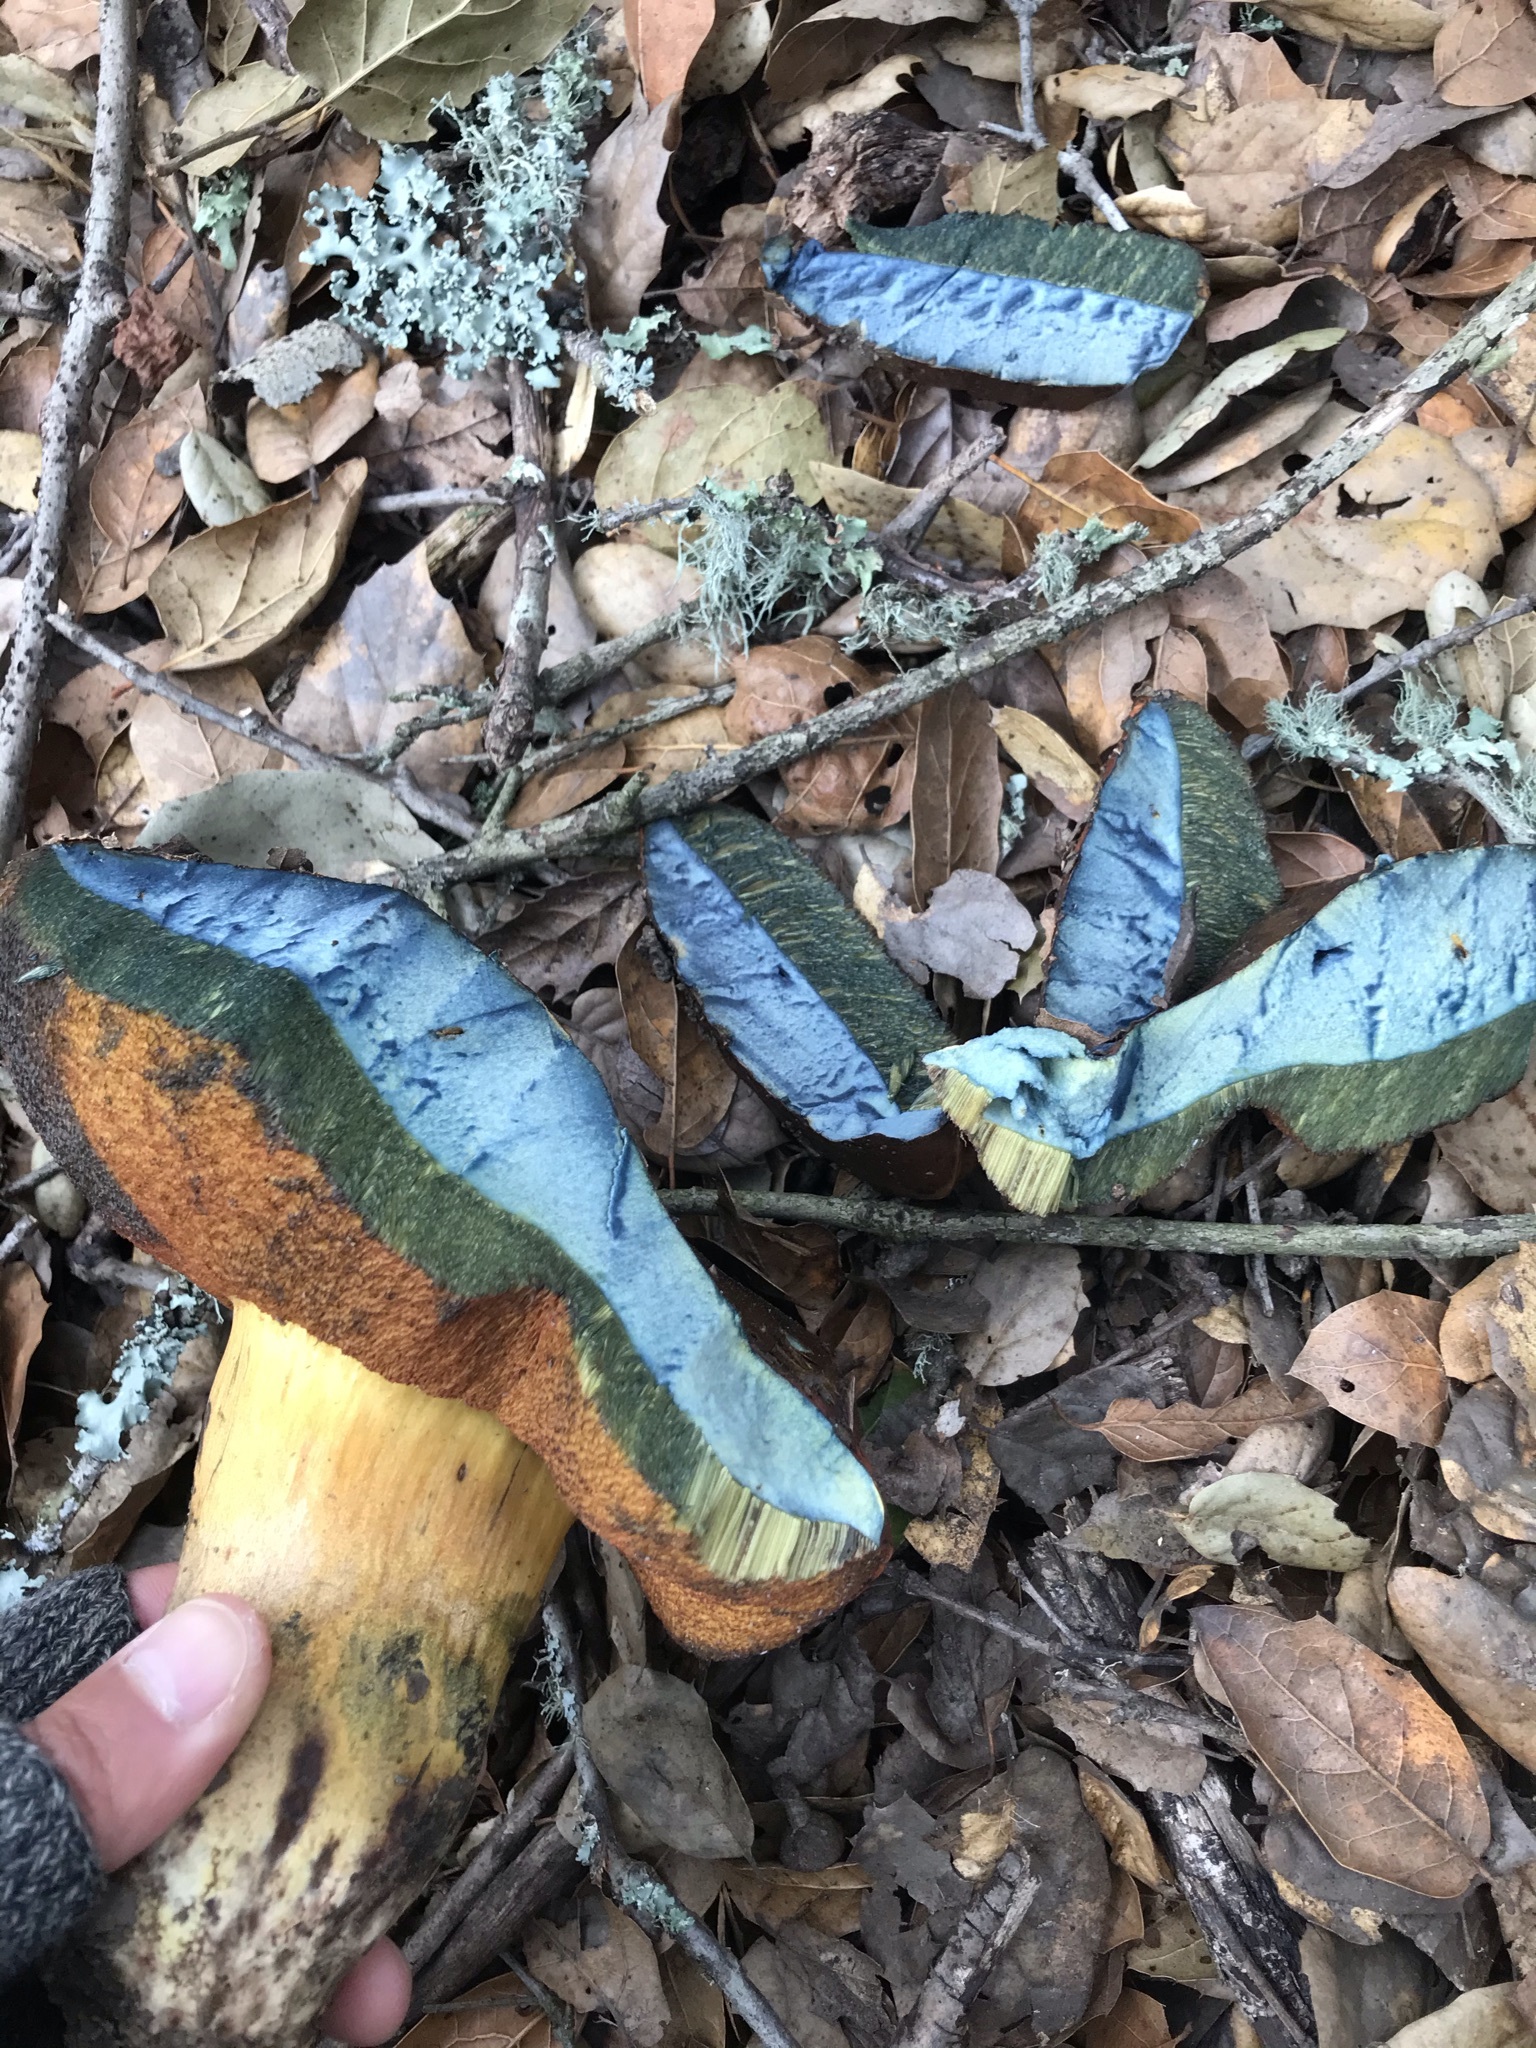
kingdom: Fungi
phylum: Basidiomycota
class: Agaricomycetes
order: Boletales
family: Boletaceae
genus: Suillellus
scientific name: Suillellus amygdalinus
